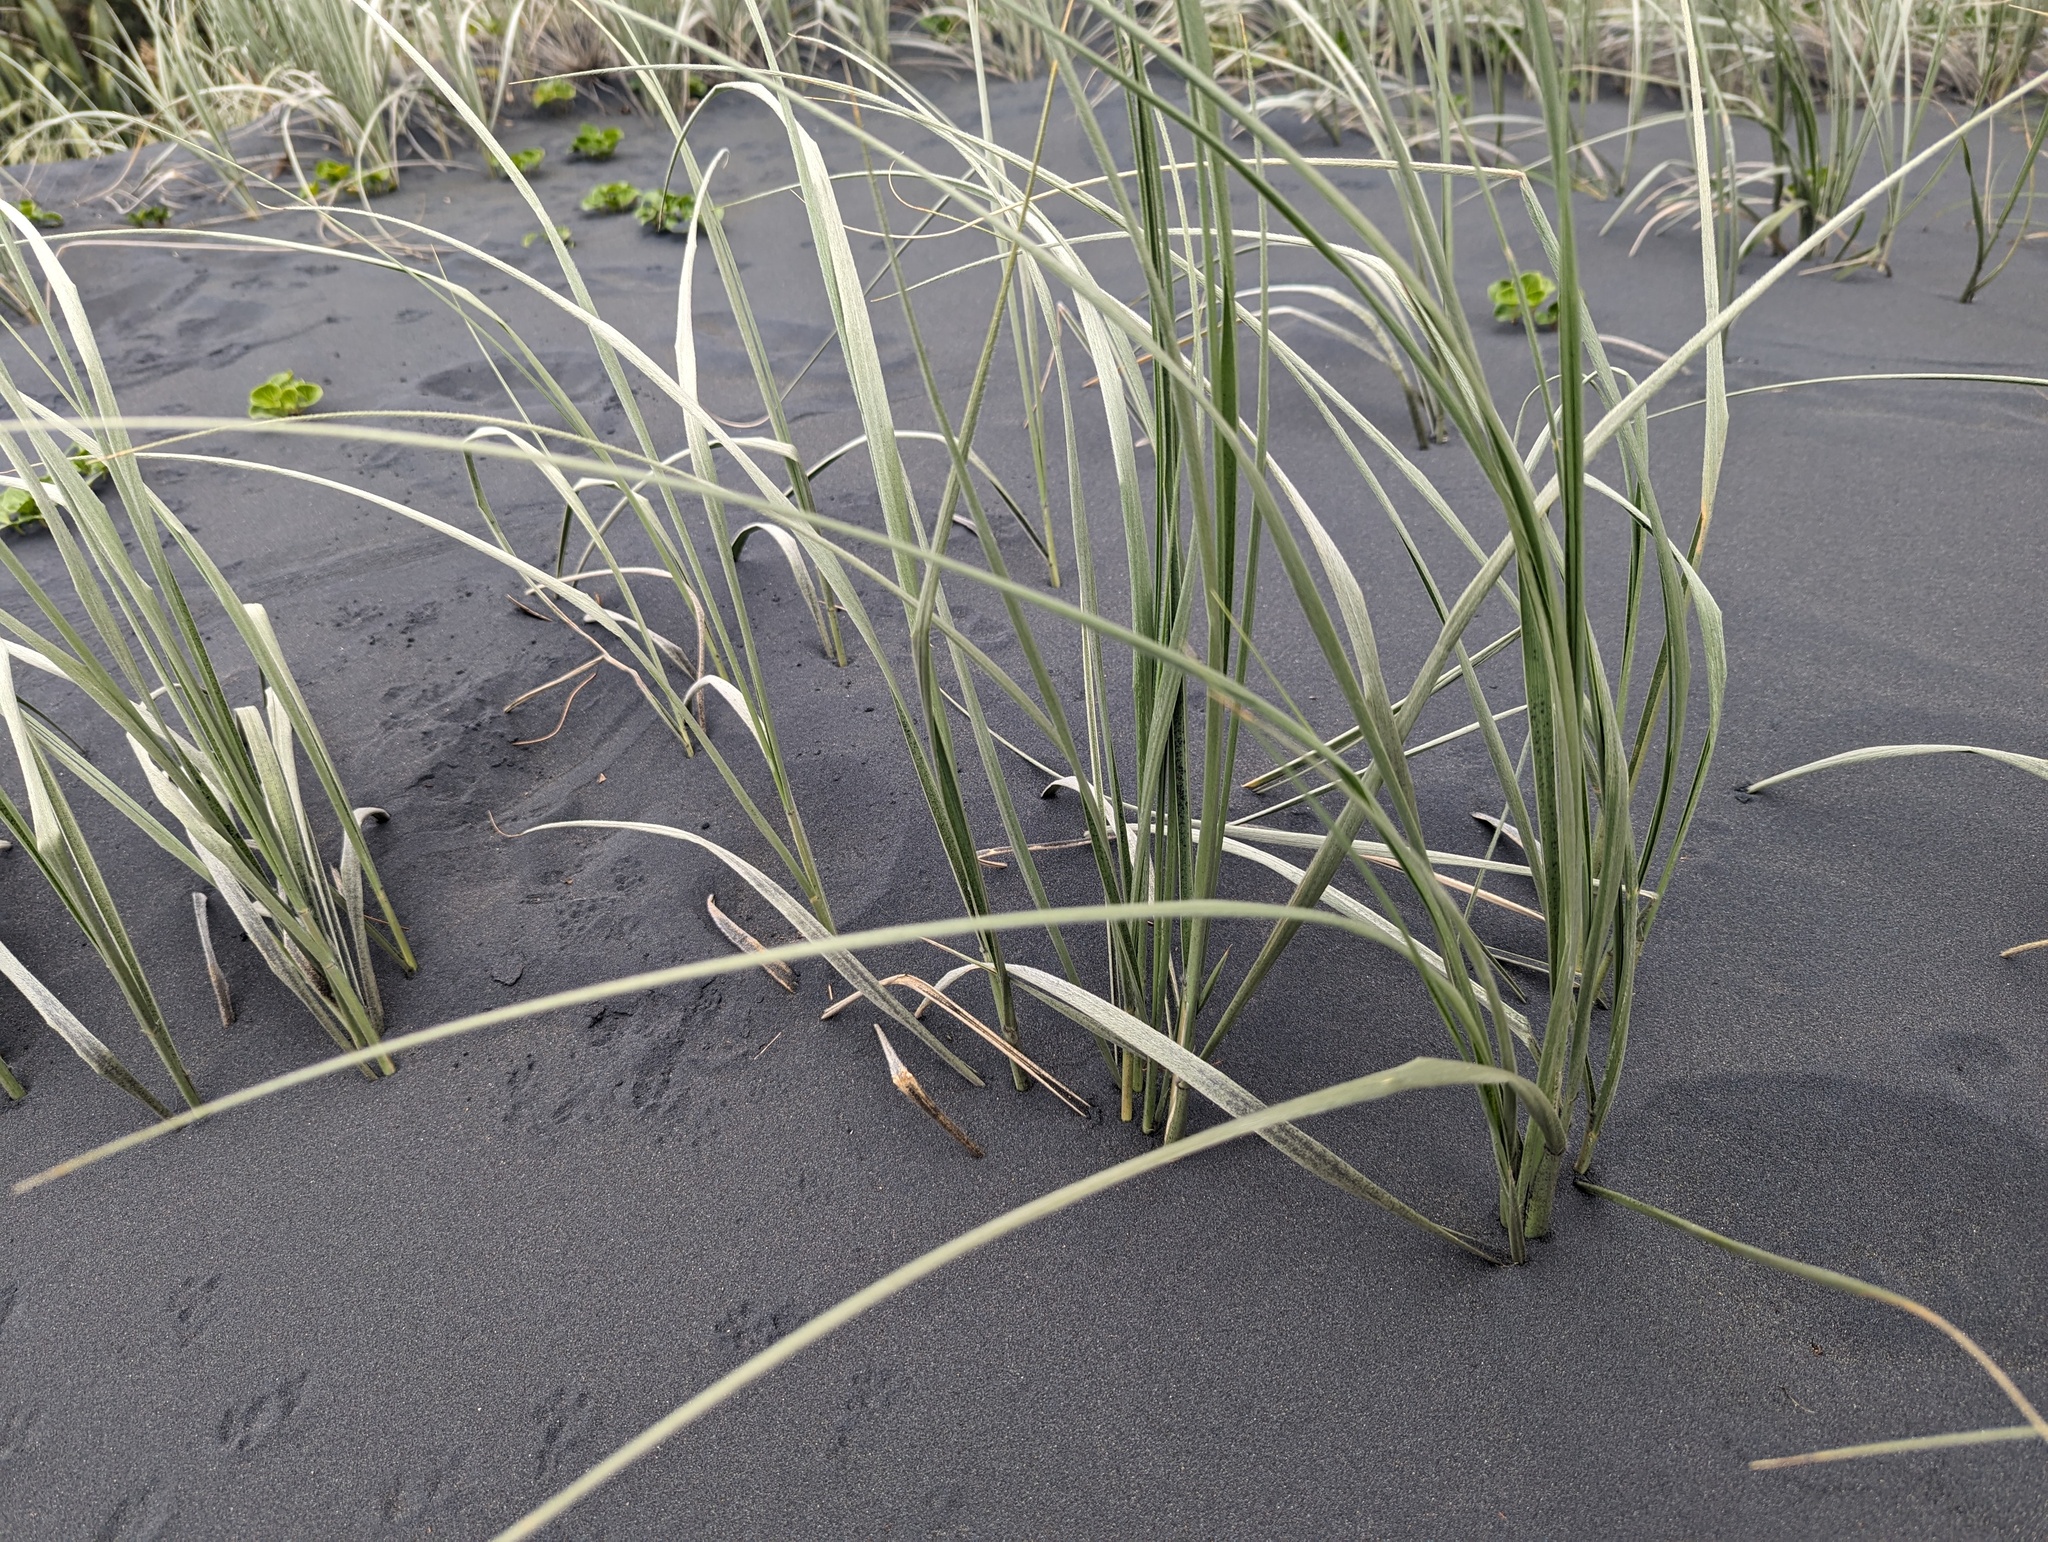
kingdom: Plantae
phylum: Tracheophyta
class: Liliopsida
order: Poales
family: Poaceae
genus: Spinifex
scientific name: Spinifex sericeus
